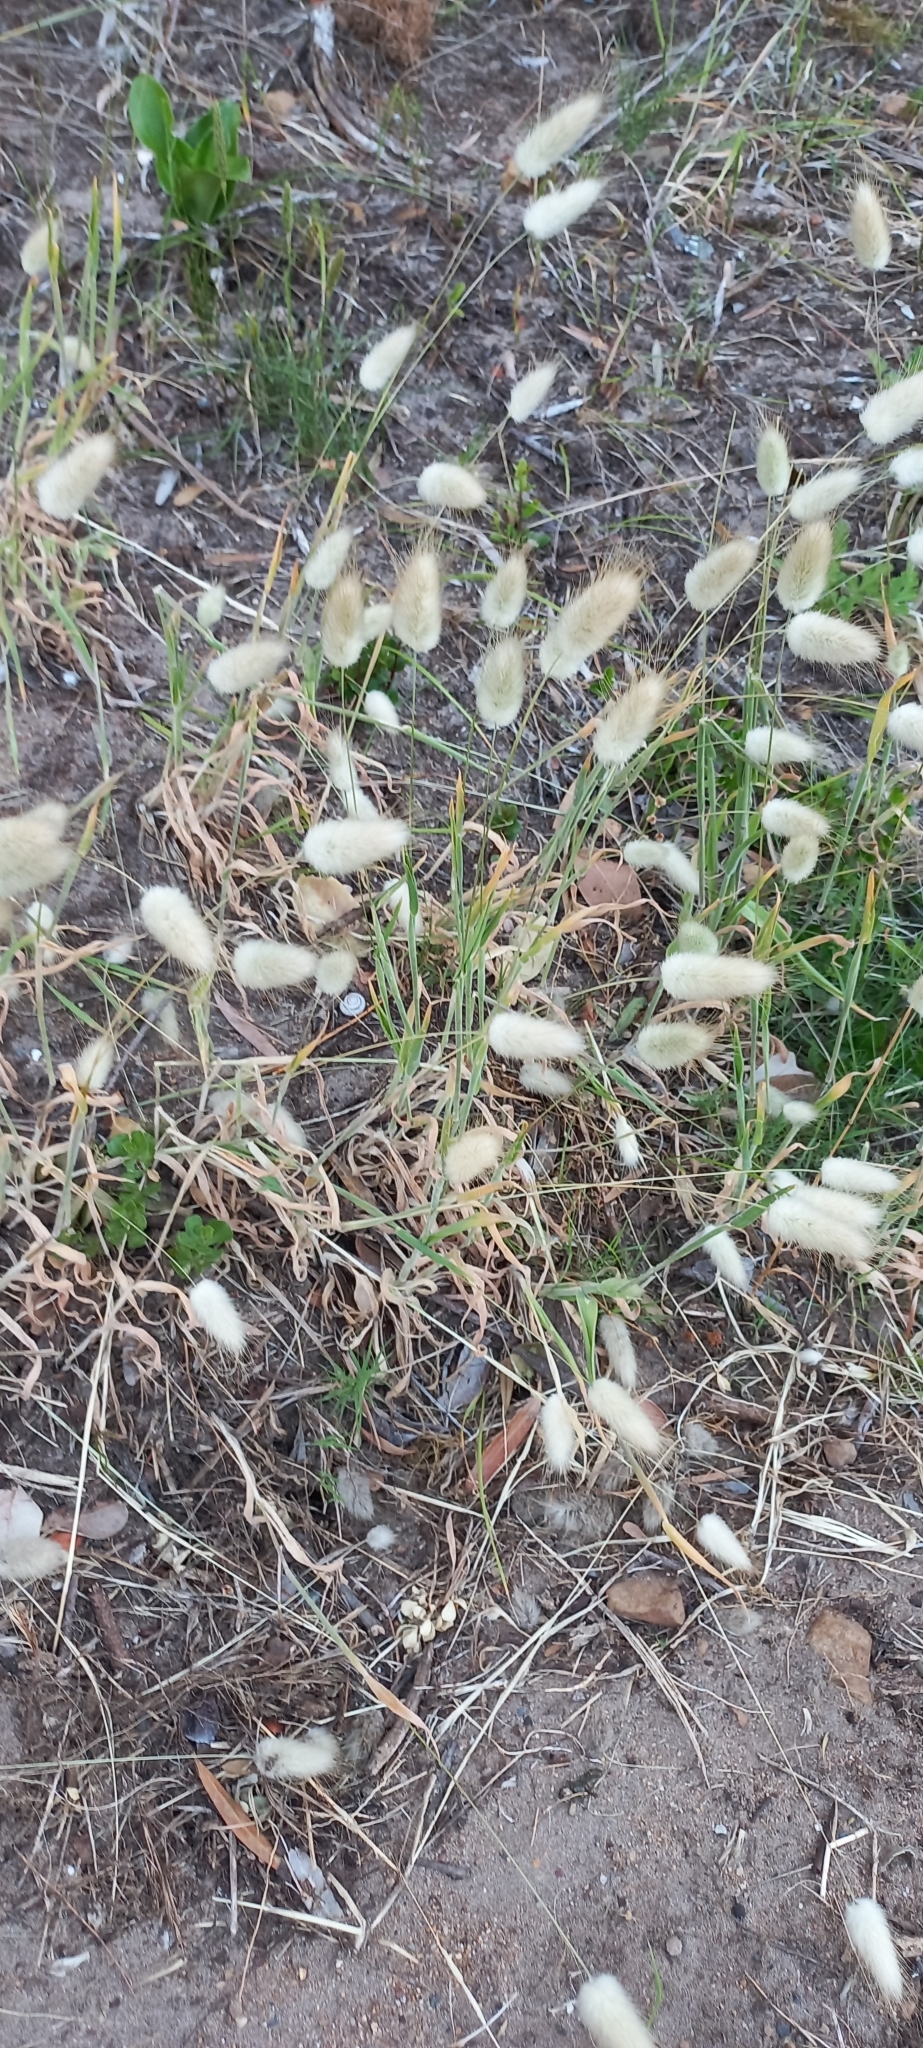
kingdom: Plantae
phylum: Tracheophyta
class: Liliopsida
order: Poales
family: Poaceae
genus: Lagurus
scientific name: Lagurus ovatus
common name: Hare's-tail
